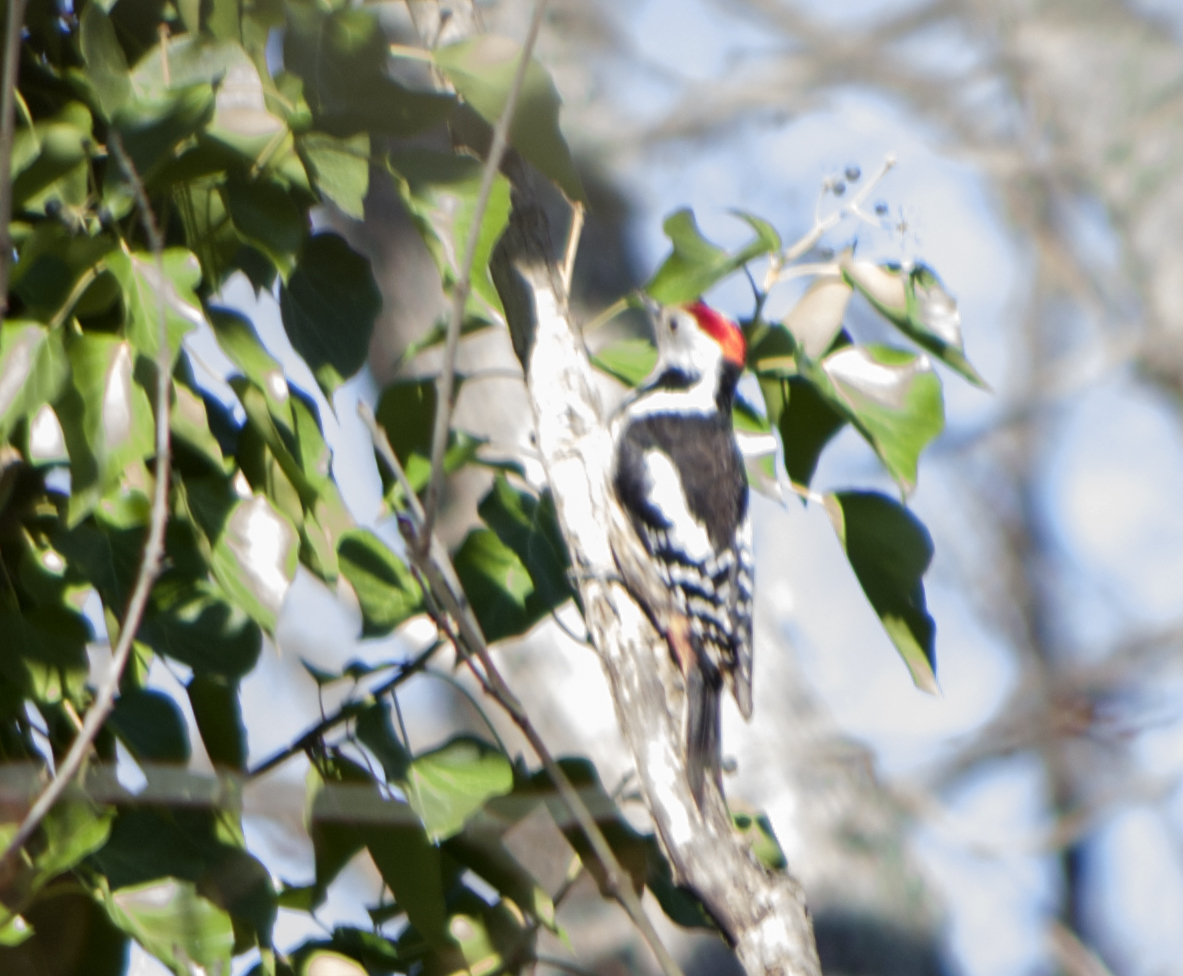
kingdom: Animalia
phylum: Chordata
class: Aves
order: Piciformes
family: Picidae
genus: Dendrocoptes
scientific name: Dendrocoptes medius
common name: Middle spotted woodpecker
